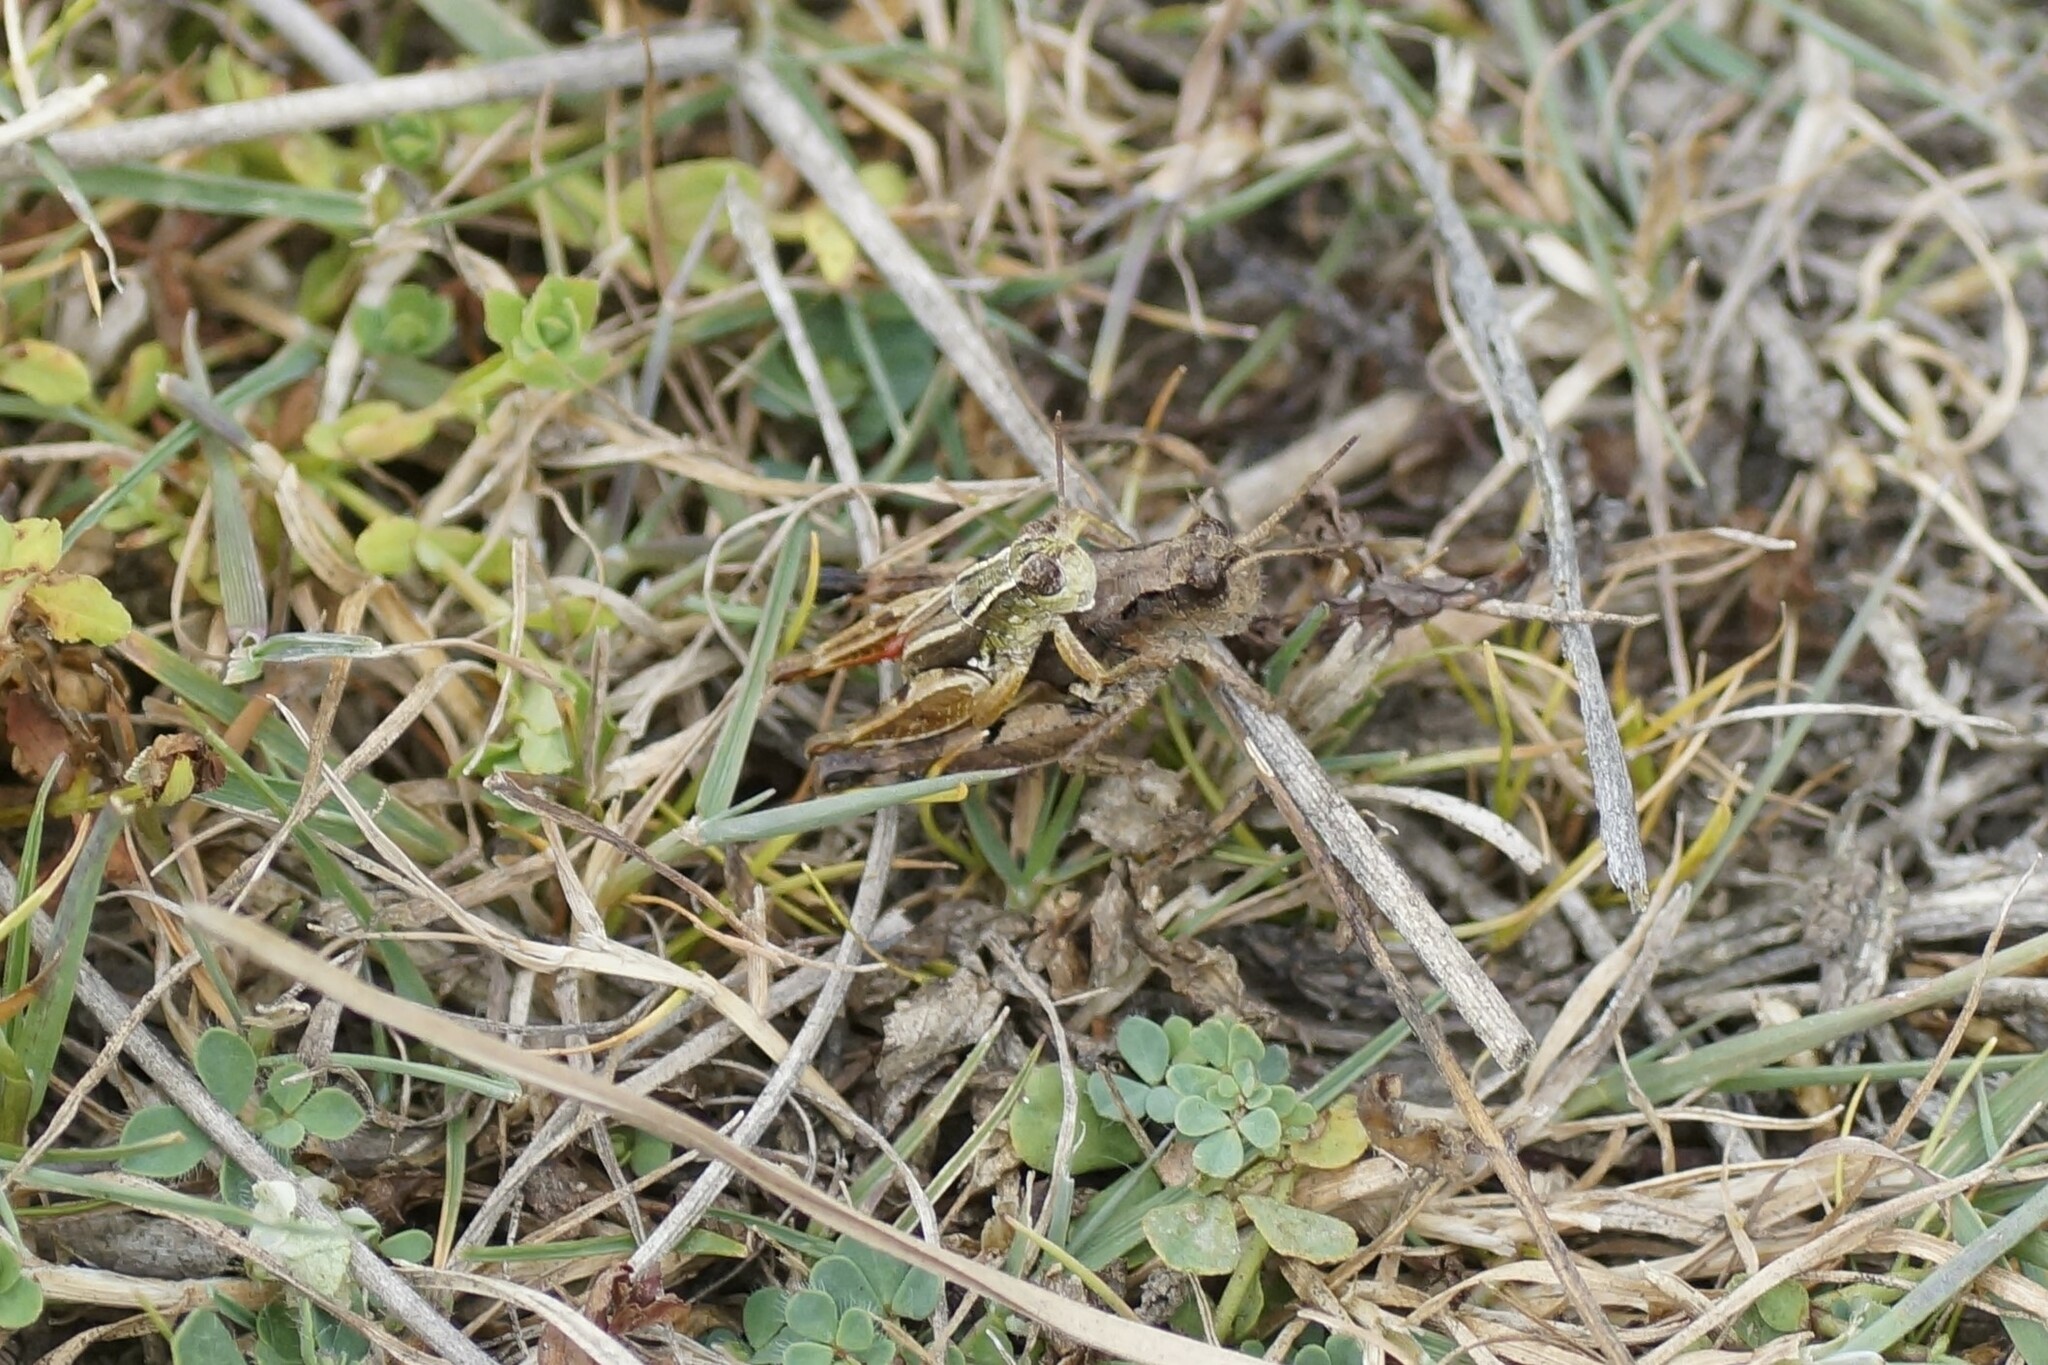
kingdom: Animalia
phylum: Arthropoda
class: Insecta
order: Orthoptera
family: Acrididae
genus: Phaulacridium
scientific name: Phaulacridium vittatum
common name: Wingless grasshopper
